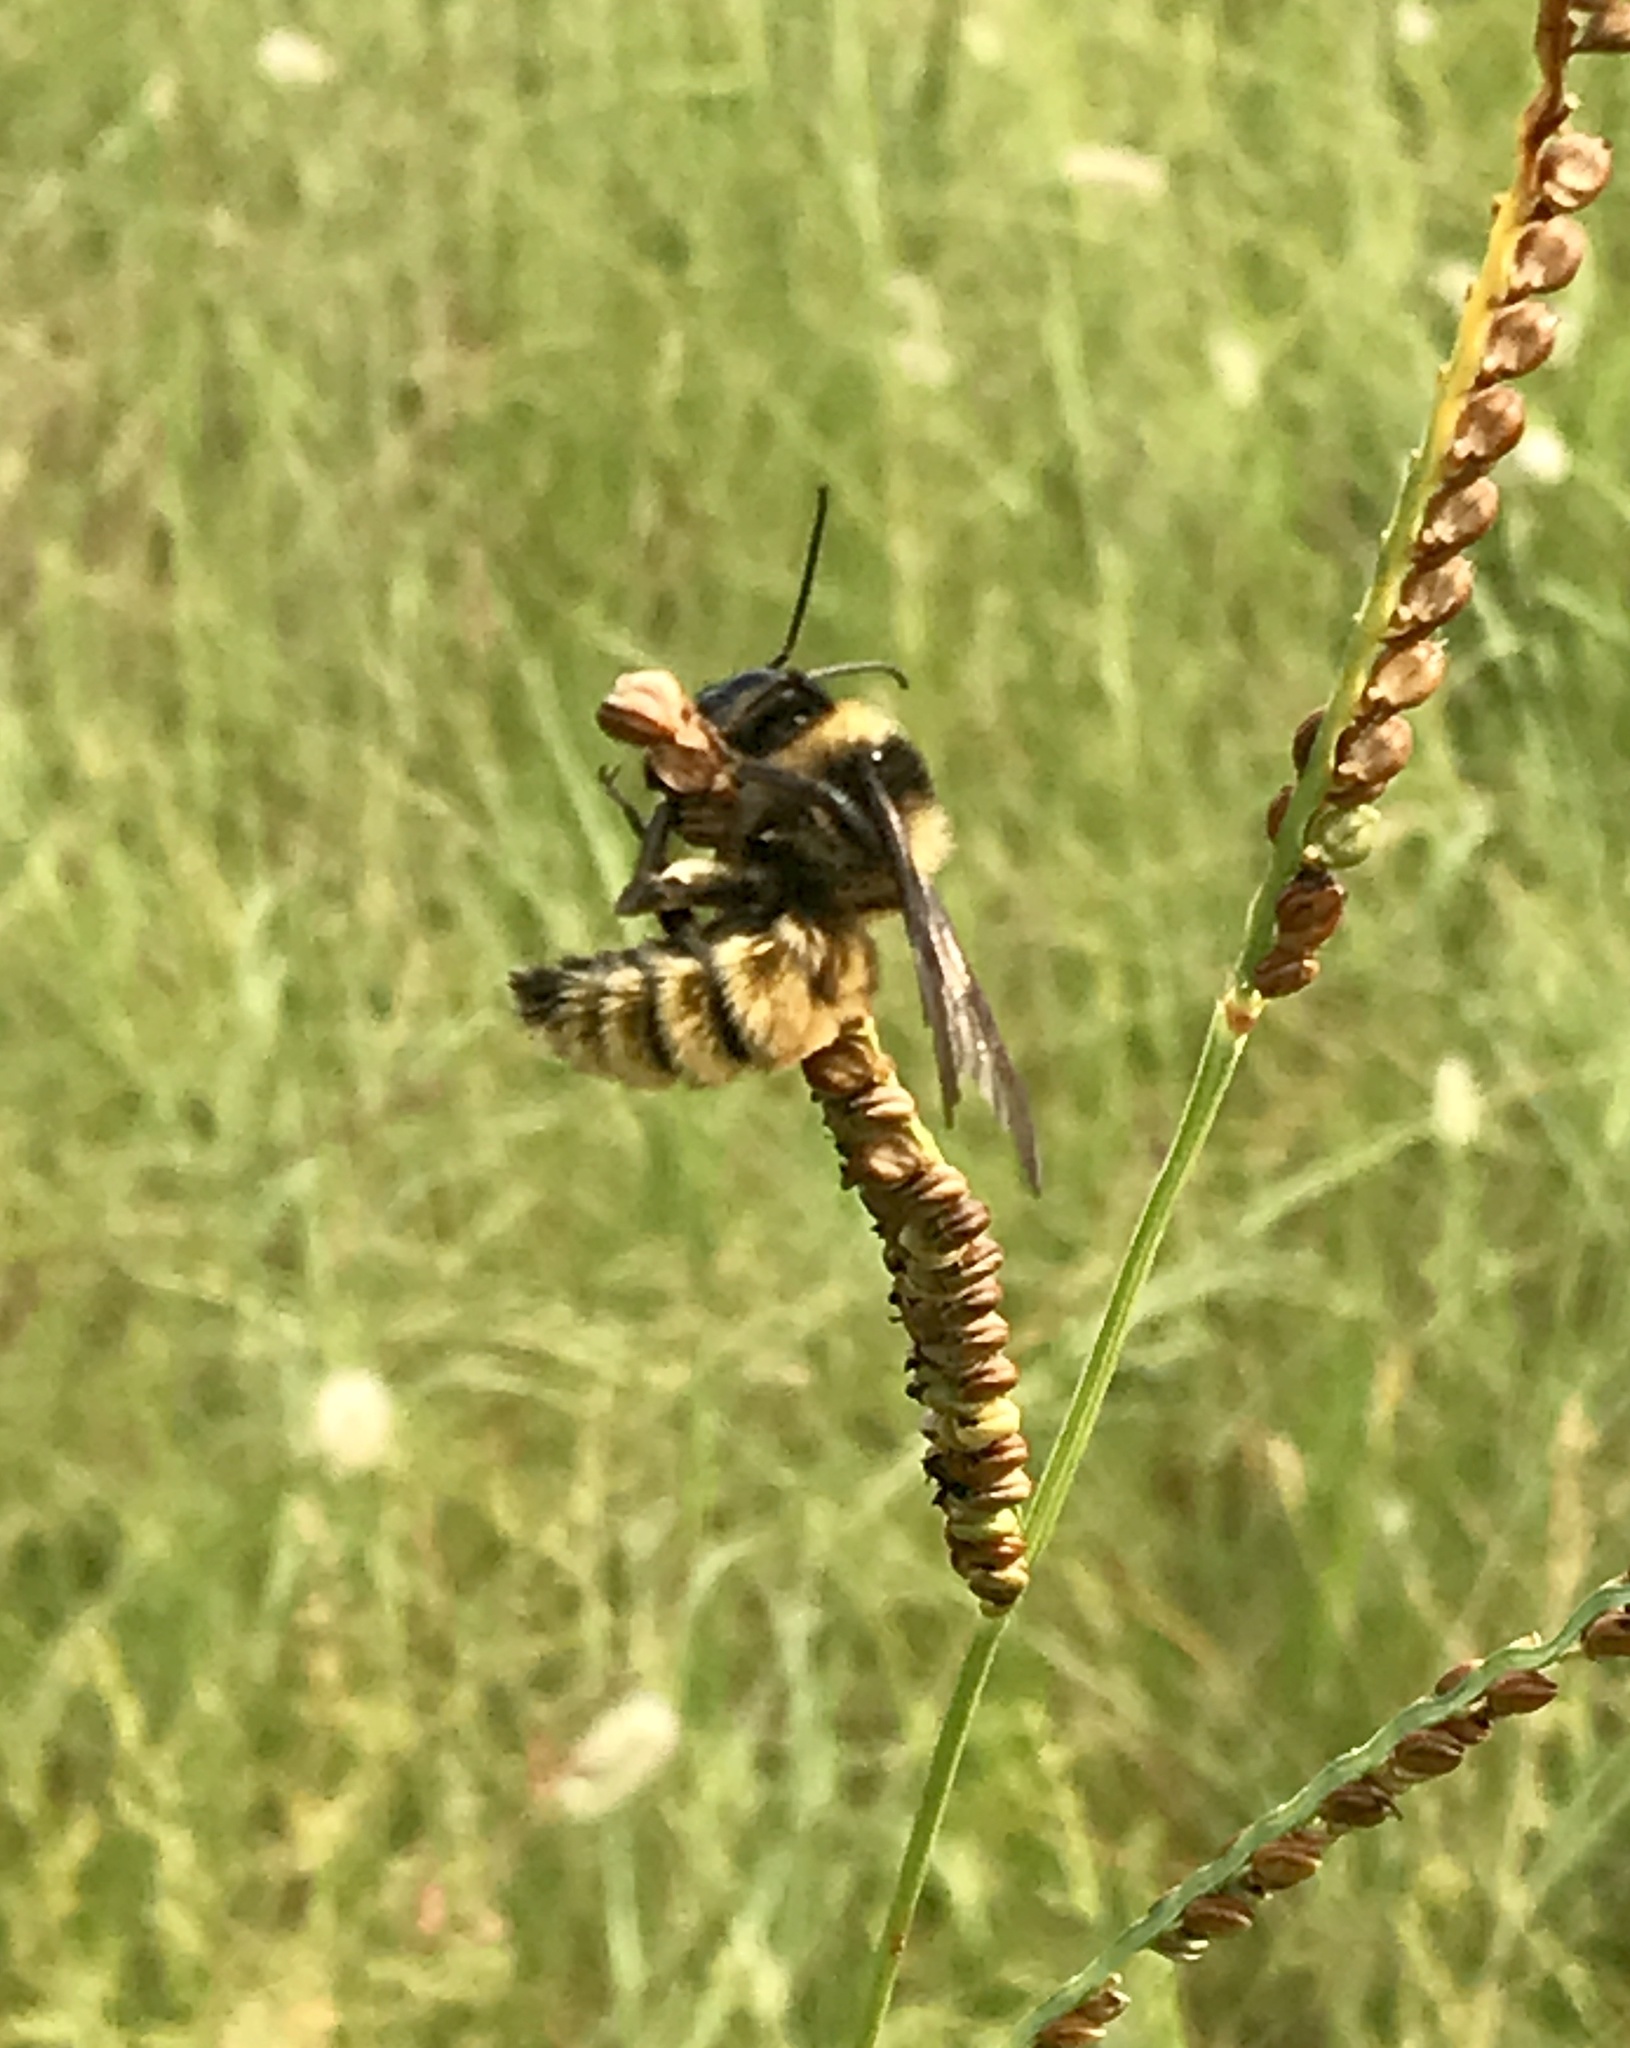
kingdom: Animalia
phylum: Arthropoda
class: Insecta
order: Hymenoptera
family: Apidae
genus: Bombus
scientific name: Bombus pensylvanicus
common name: Bumble bee
